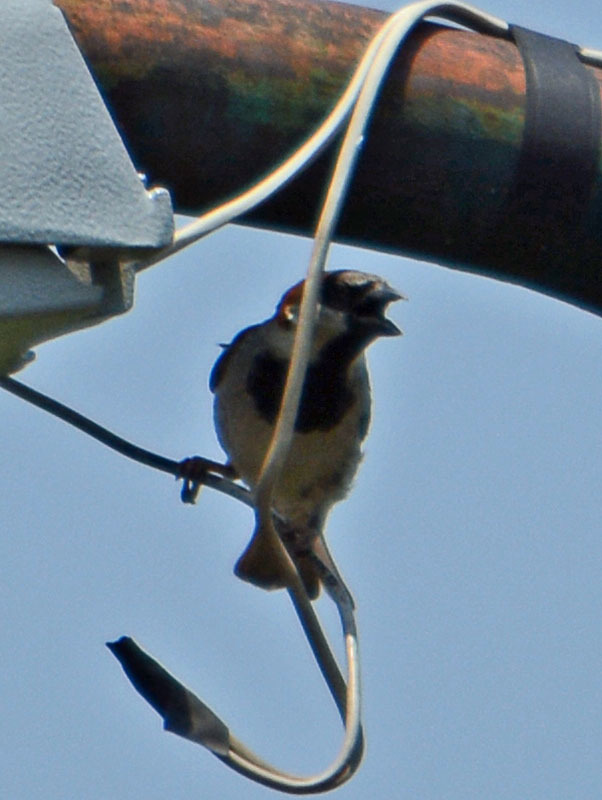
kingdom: Animalia
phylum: Chordata
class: Aves
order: Passeriformes
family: Passeridae
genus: Passer
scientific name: Passer domesticus
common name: House sparrow
